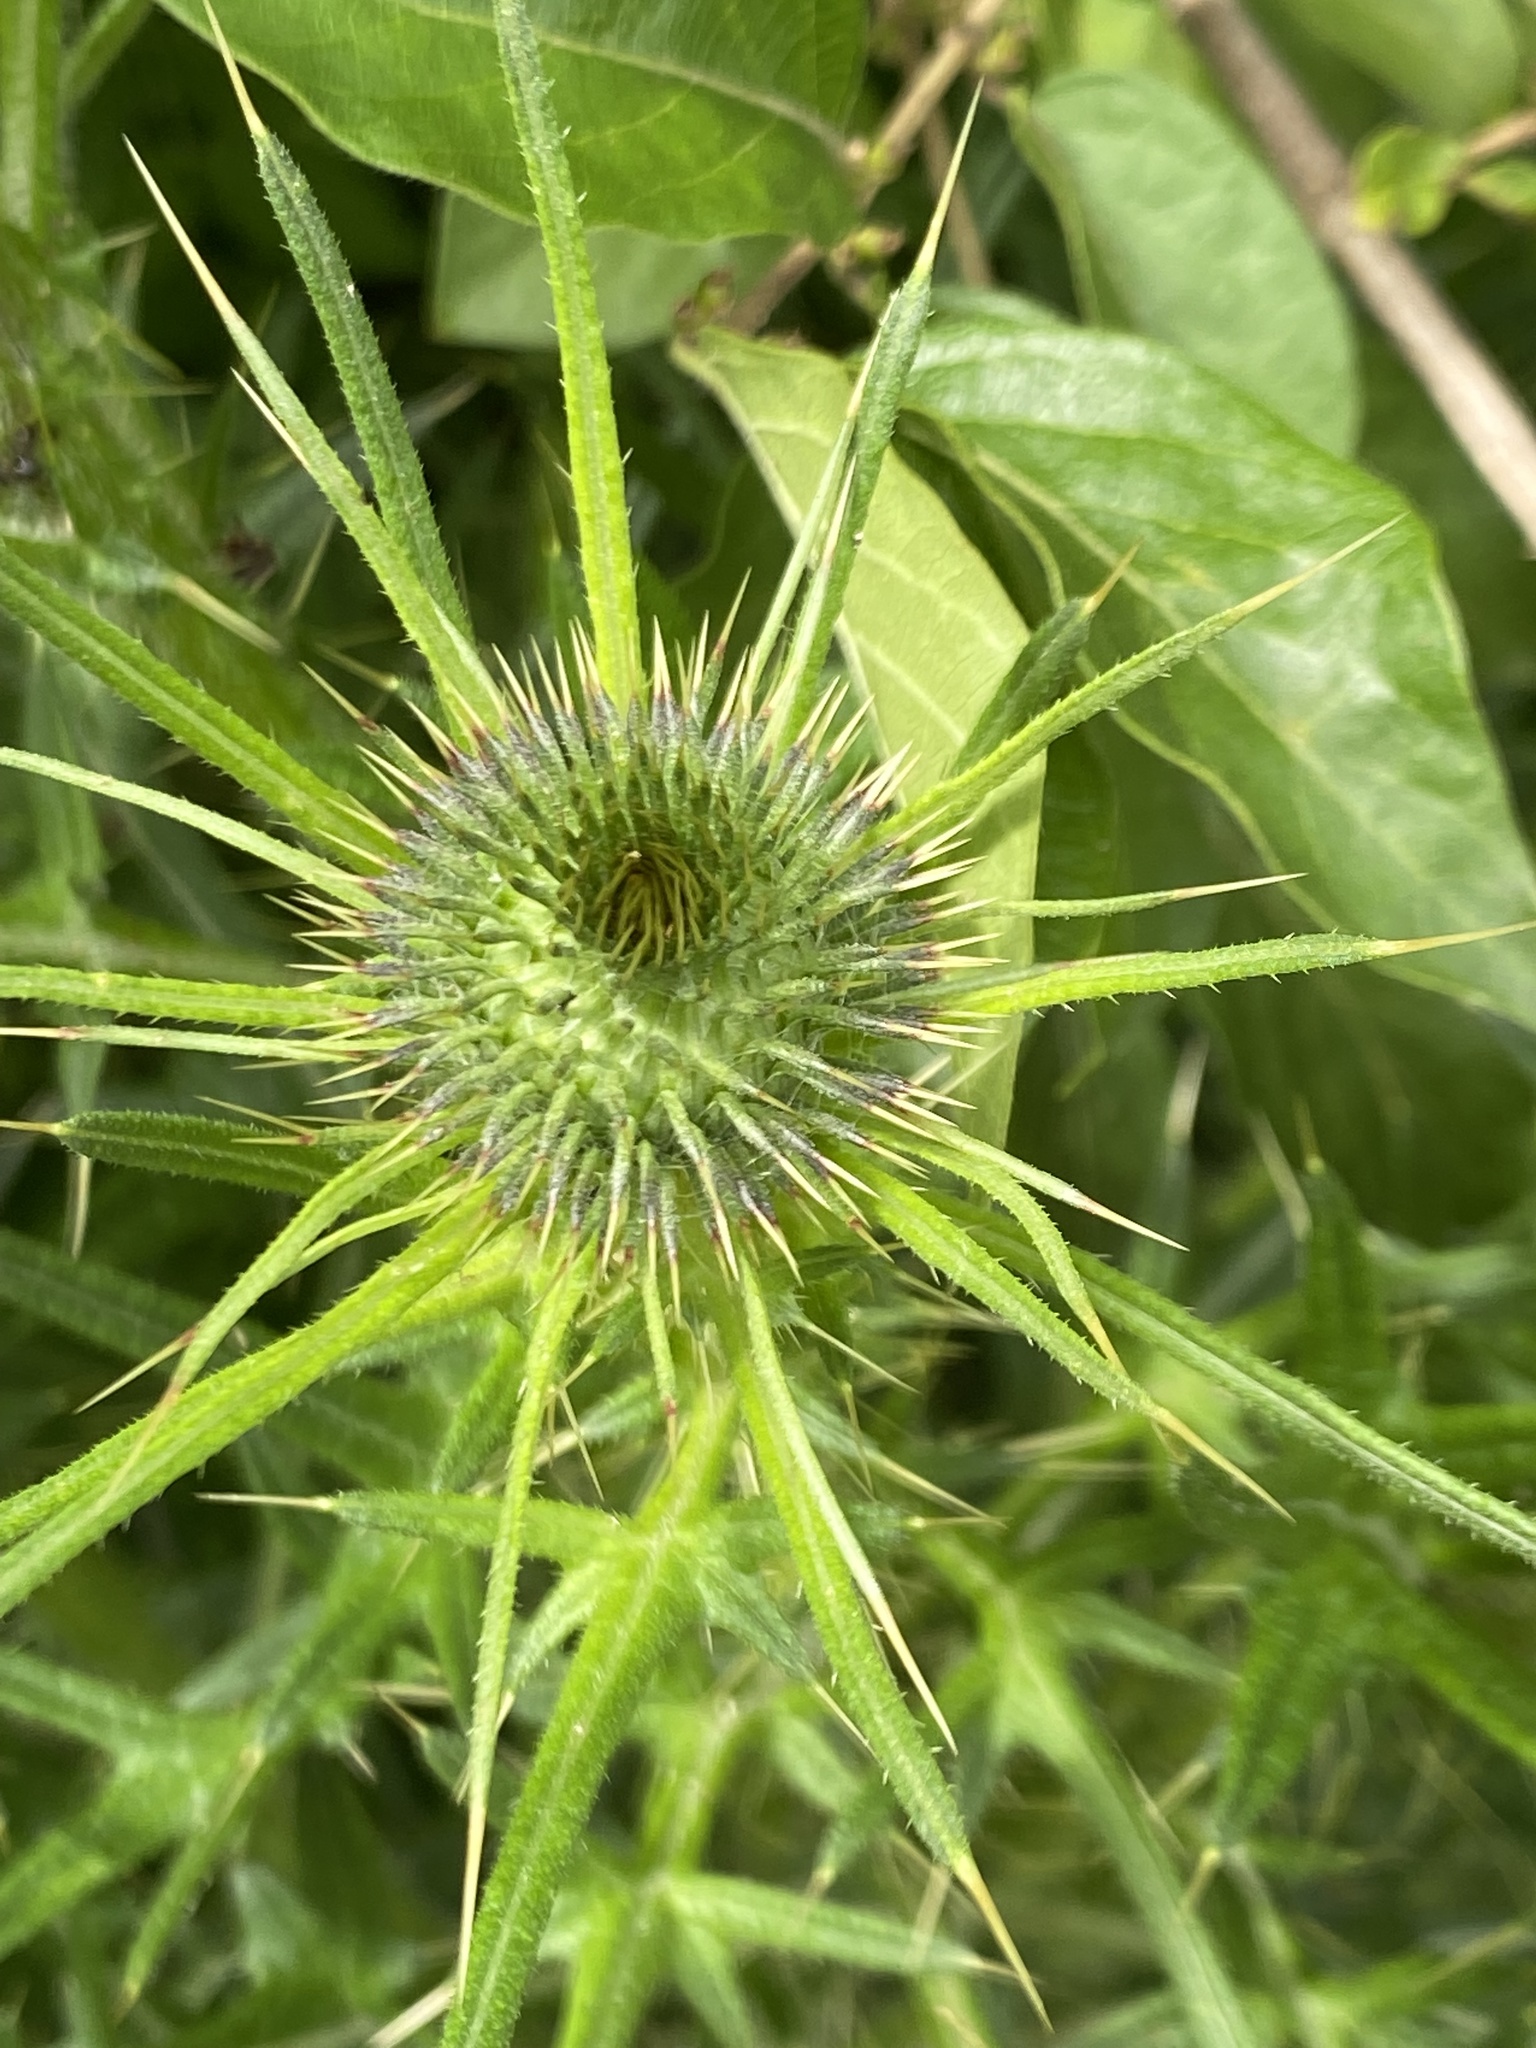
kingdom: Plantae
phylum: Tracheophyta
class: Magnoliopsida
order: Asterales
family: Asteraceae
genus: Cirsium
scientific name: Cirsium vulgare
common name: Bull thistle
